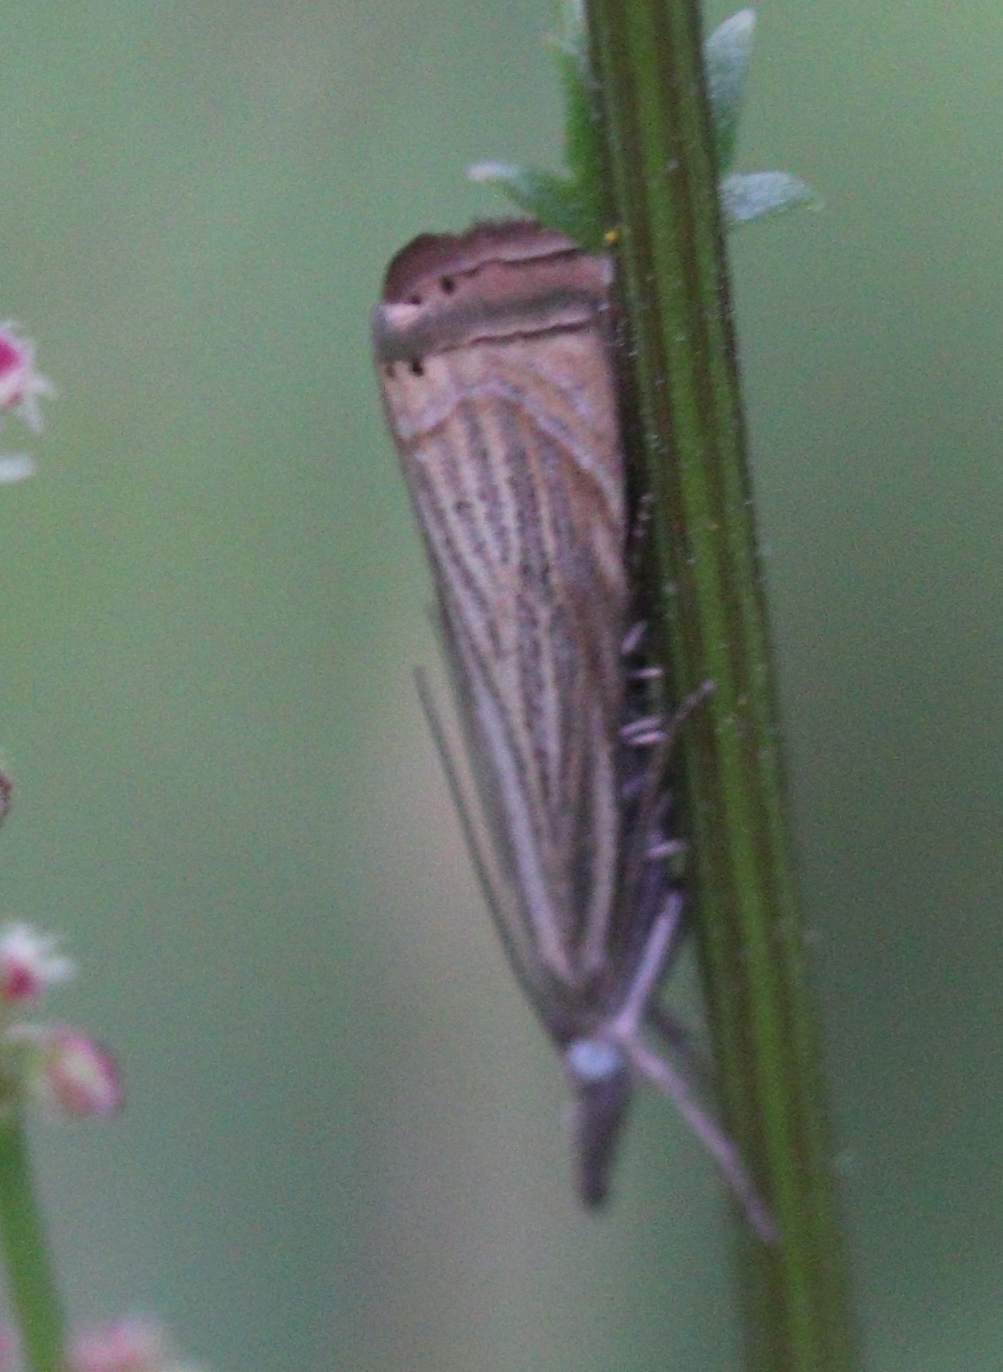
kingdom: Animalia
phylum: Arthropoda
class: Insecta
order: Lepidoptera
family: Crambidae
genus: Chrysoteuchia
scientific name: Chrysoteuchia culmella
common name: Garden grass-veneer
